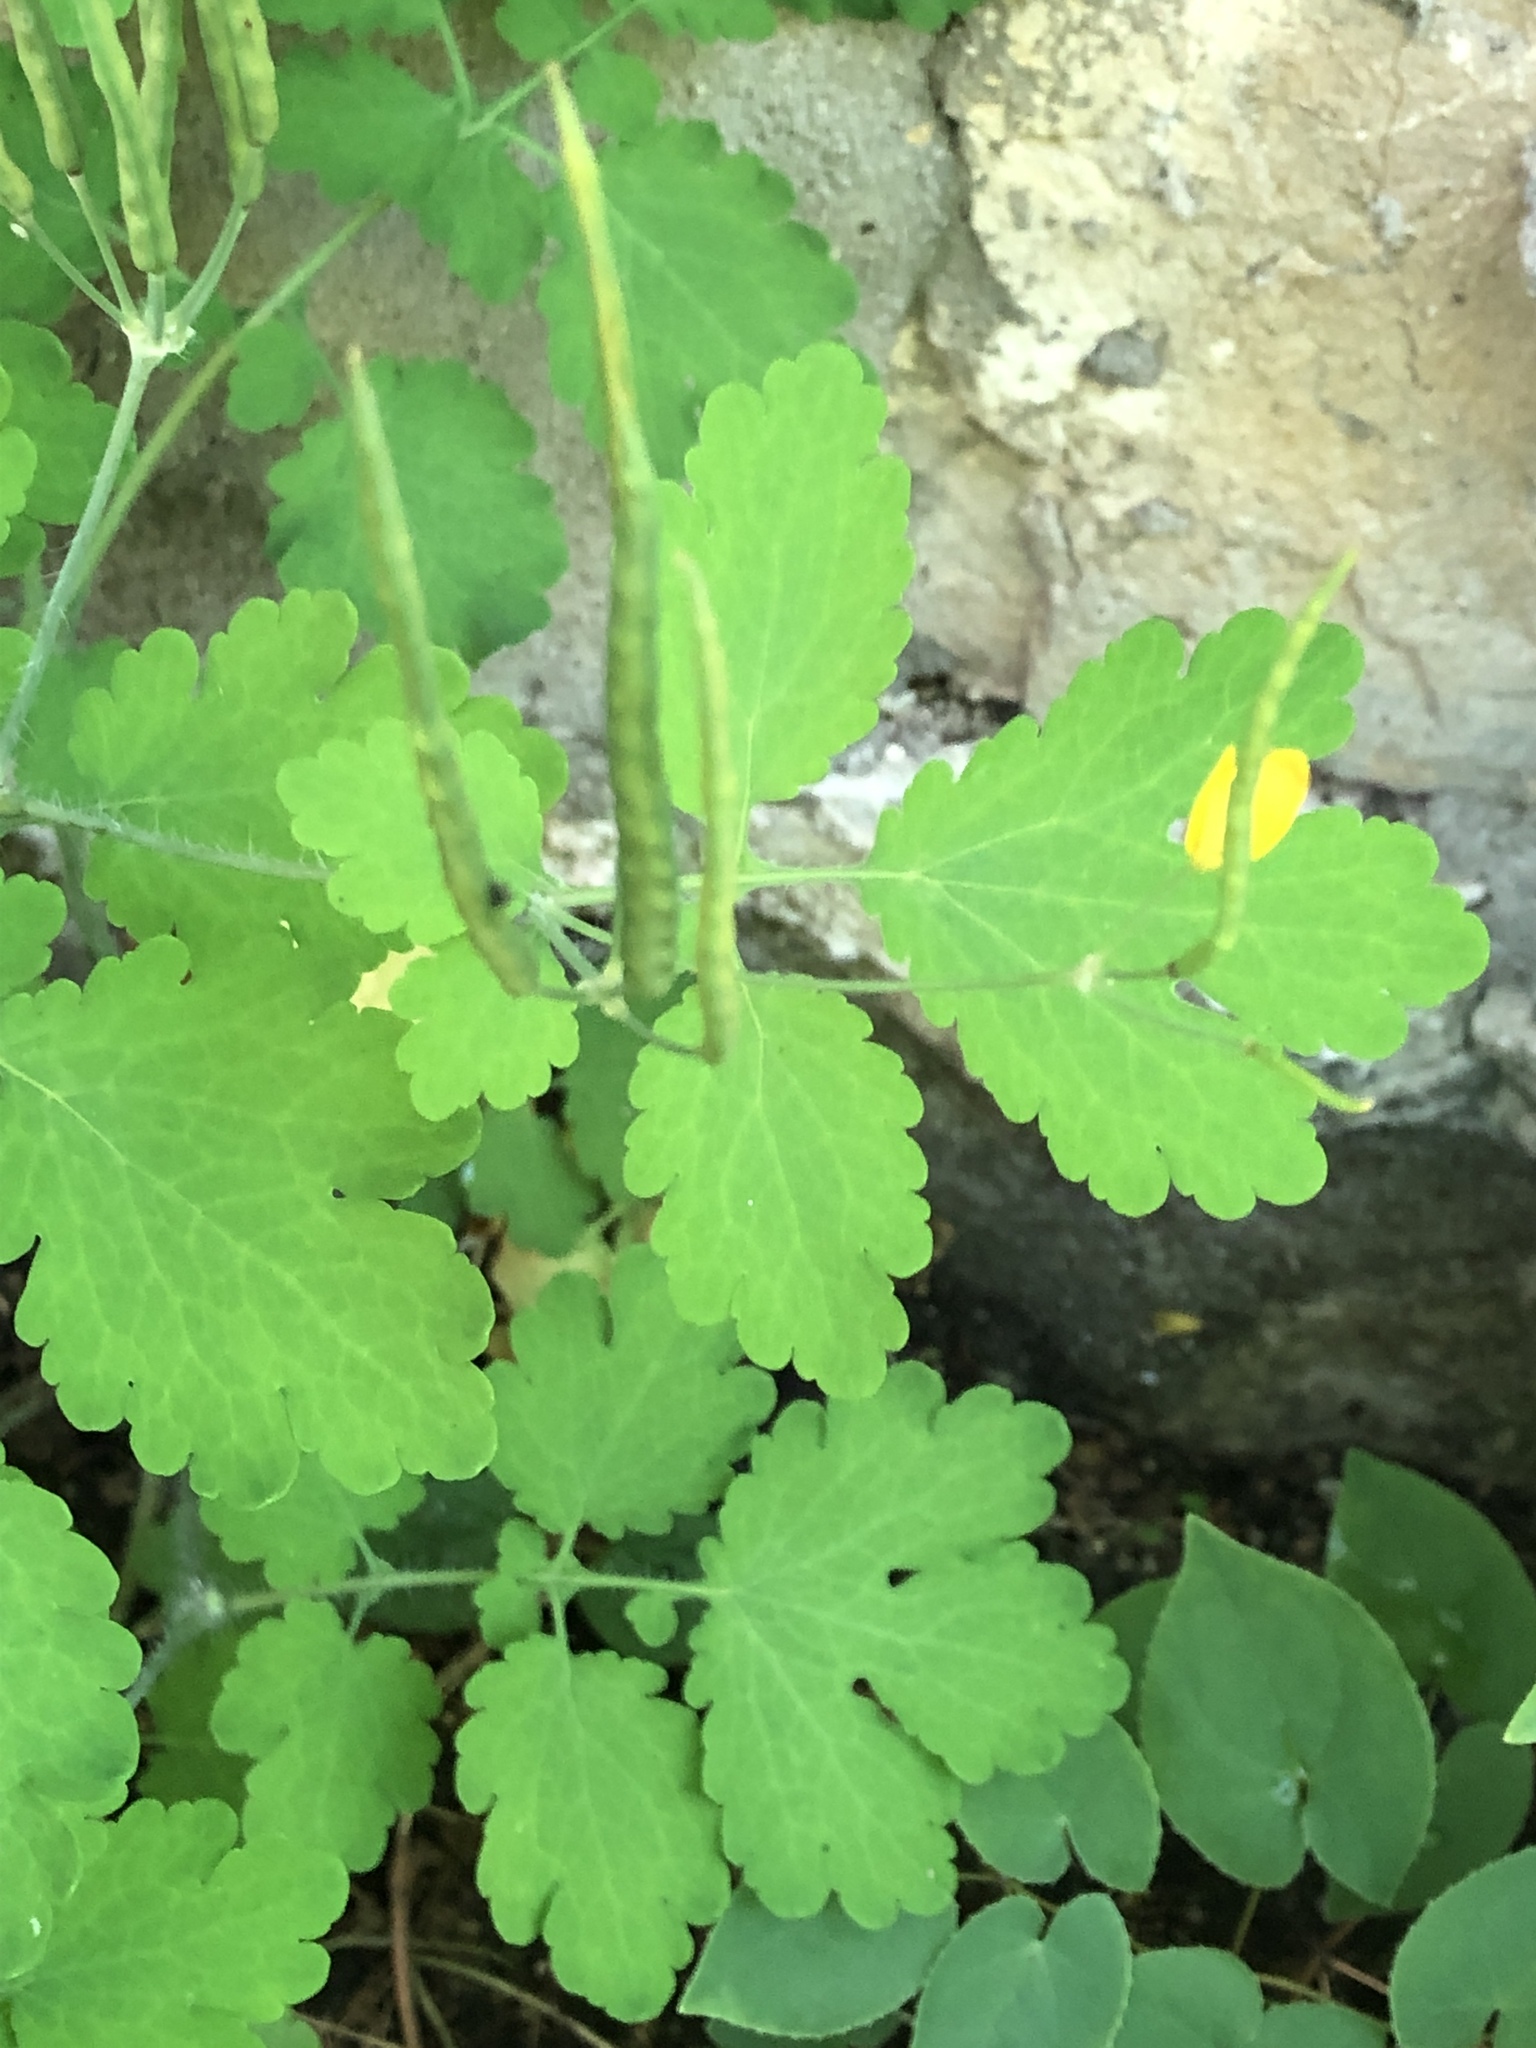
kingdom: Plantae
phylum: Tracheophyta
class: Magnoliopsida
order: Ranunculales
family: Papaveraceae
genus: Chelidonium
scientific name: Chelidonium majus
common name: Greater celandine
